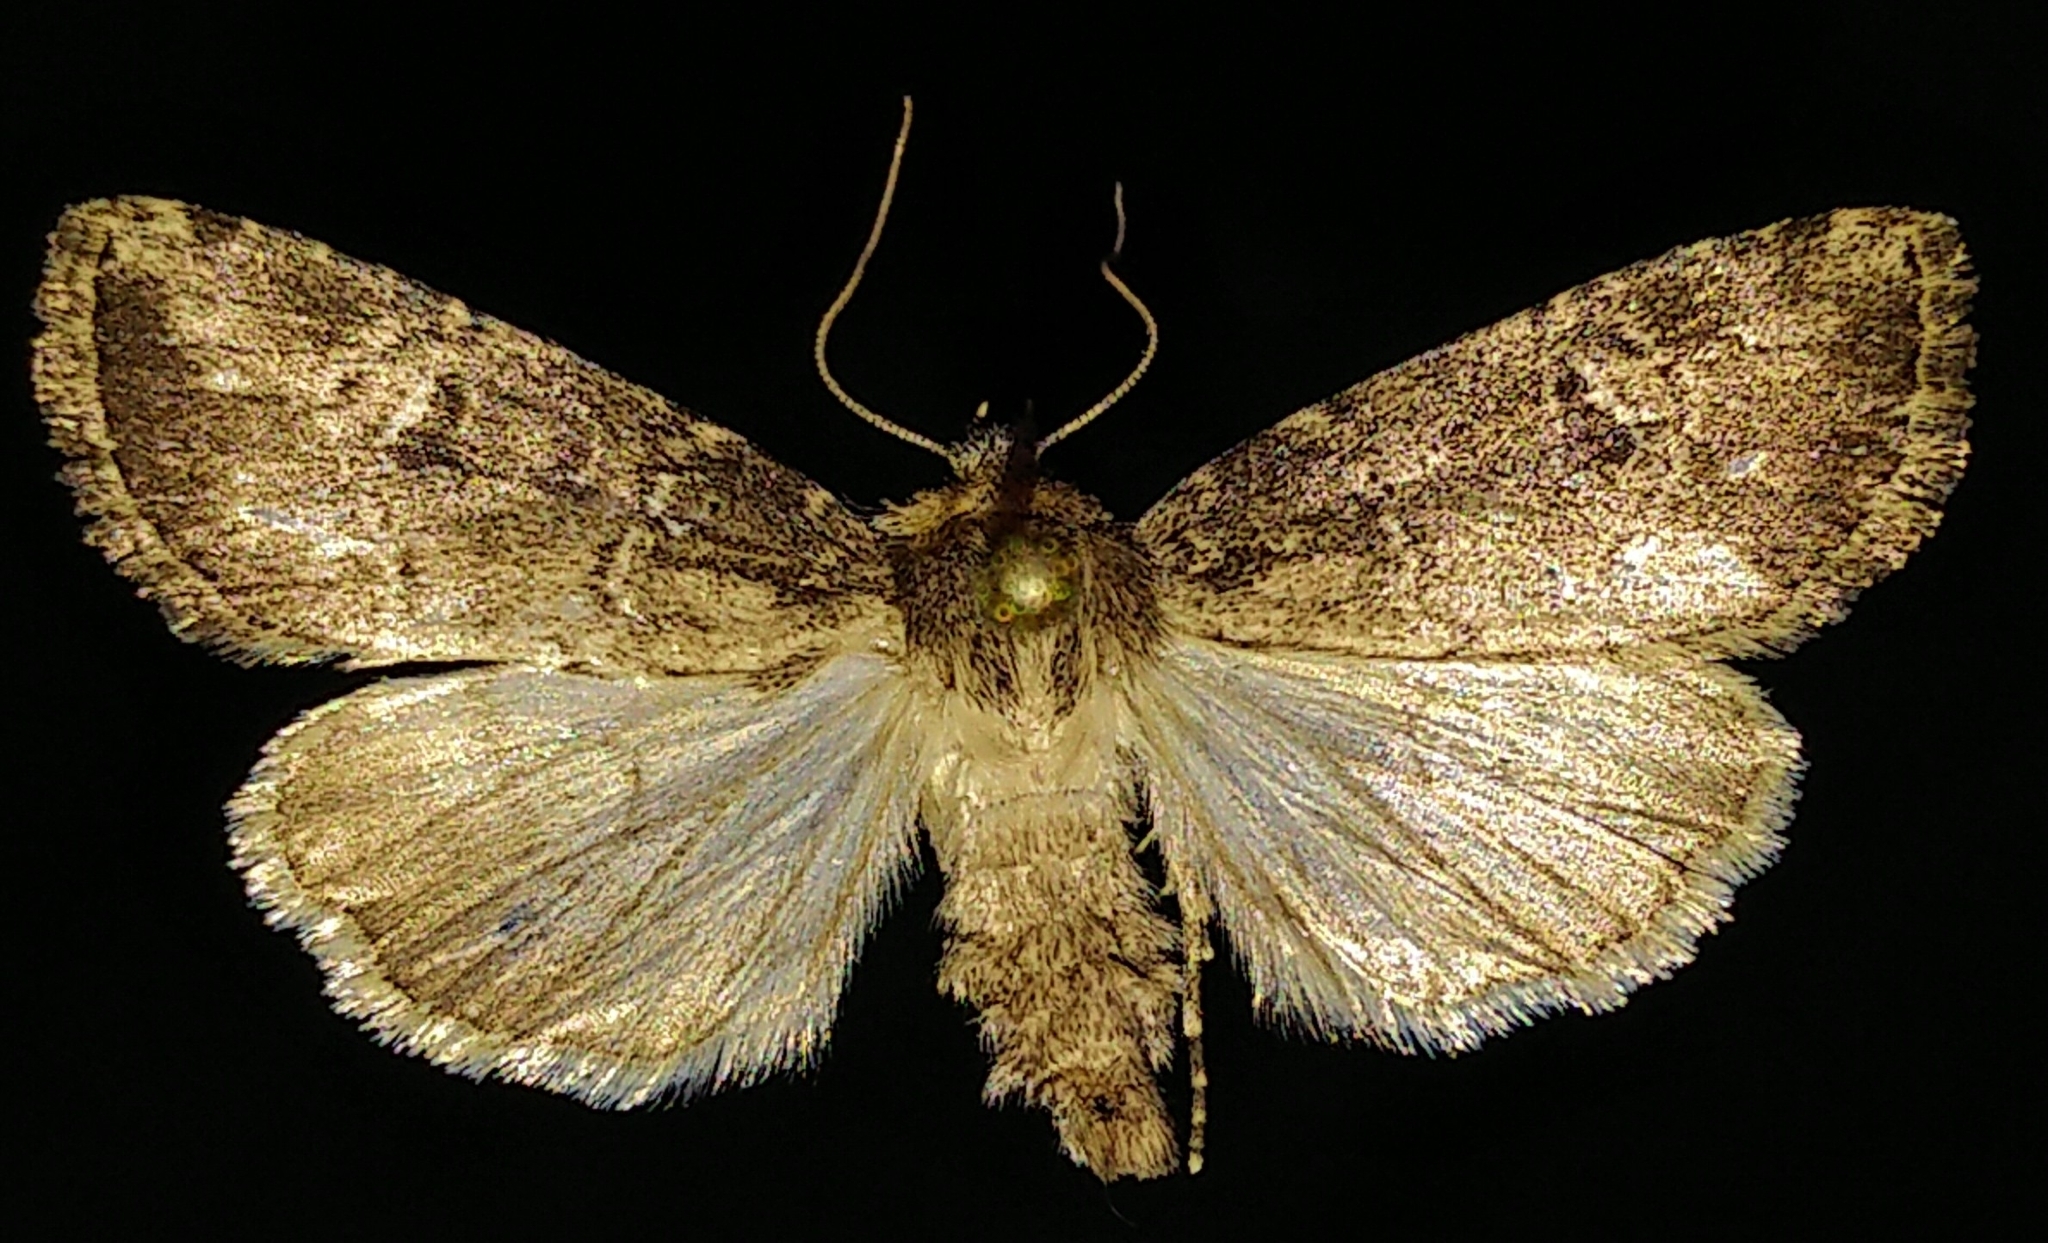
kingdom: Animalia
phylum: Arthropoda
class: Insecta
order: Lepidoptera
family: Noctuidae
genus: Anhimella
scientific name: Anhimella contrahens
